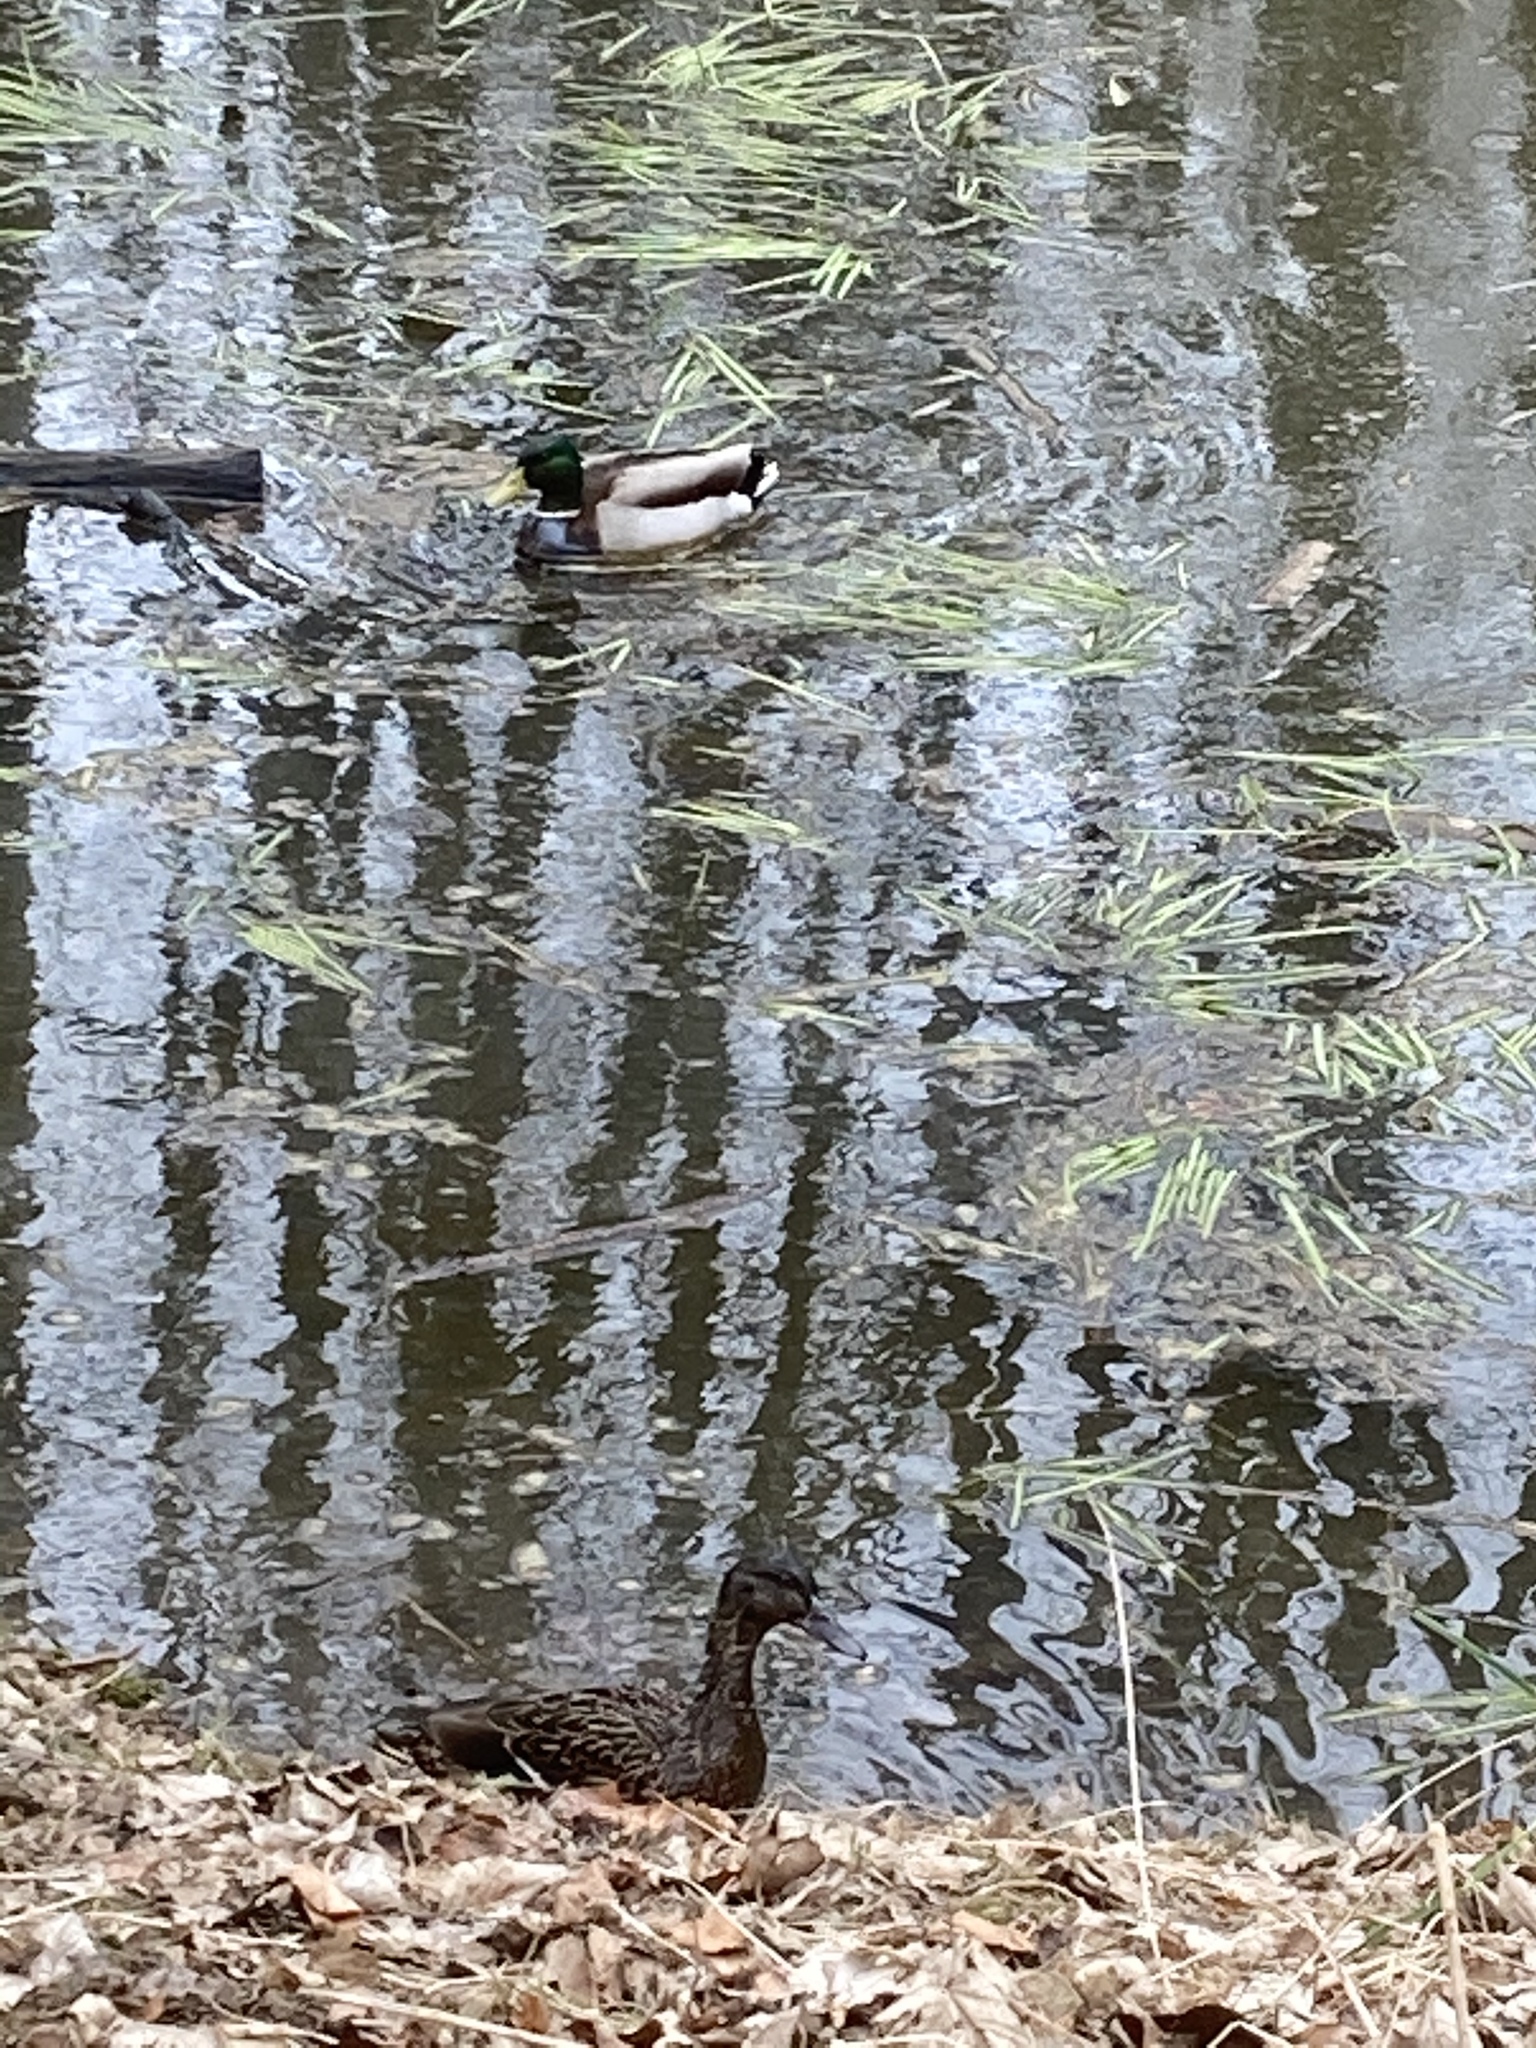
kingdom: Animalia
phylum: Chordata
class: Aves
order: Anseriformes
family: Anatidae
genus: Anas
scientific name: Anas platyrhynchos
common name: Mallard
